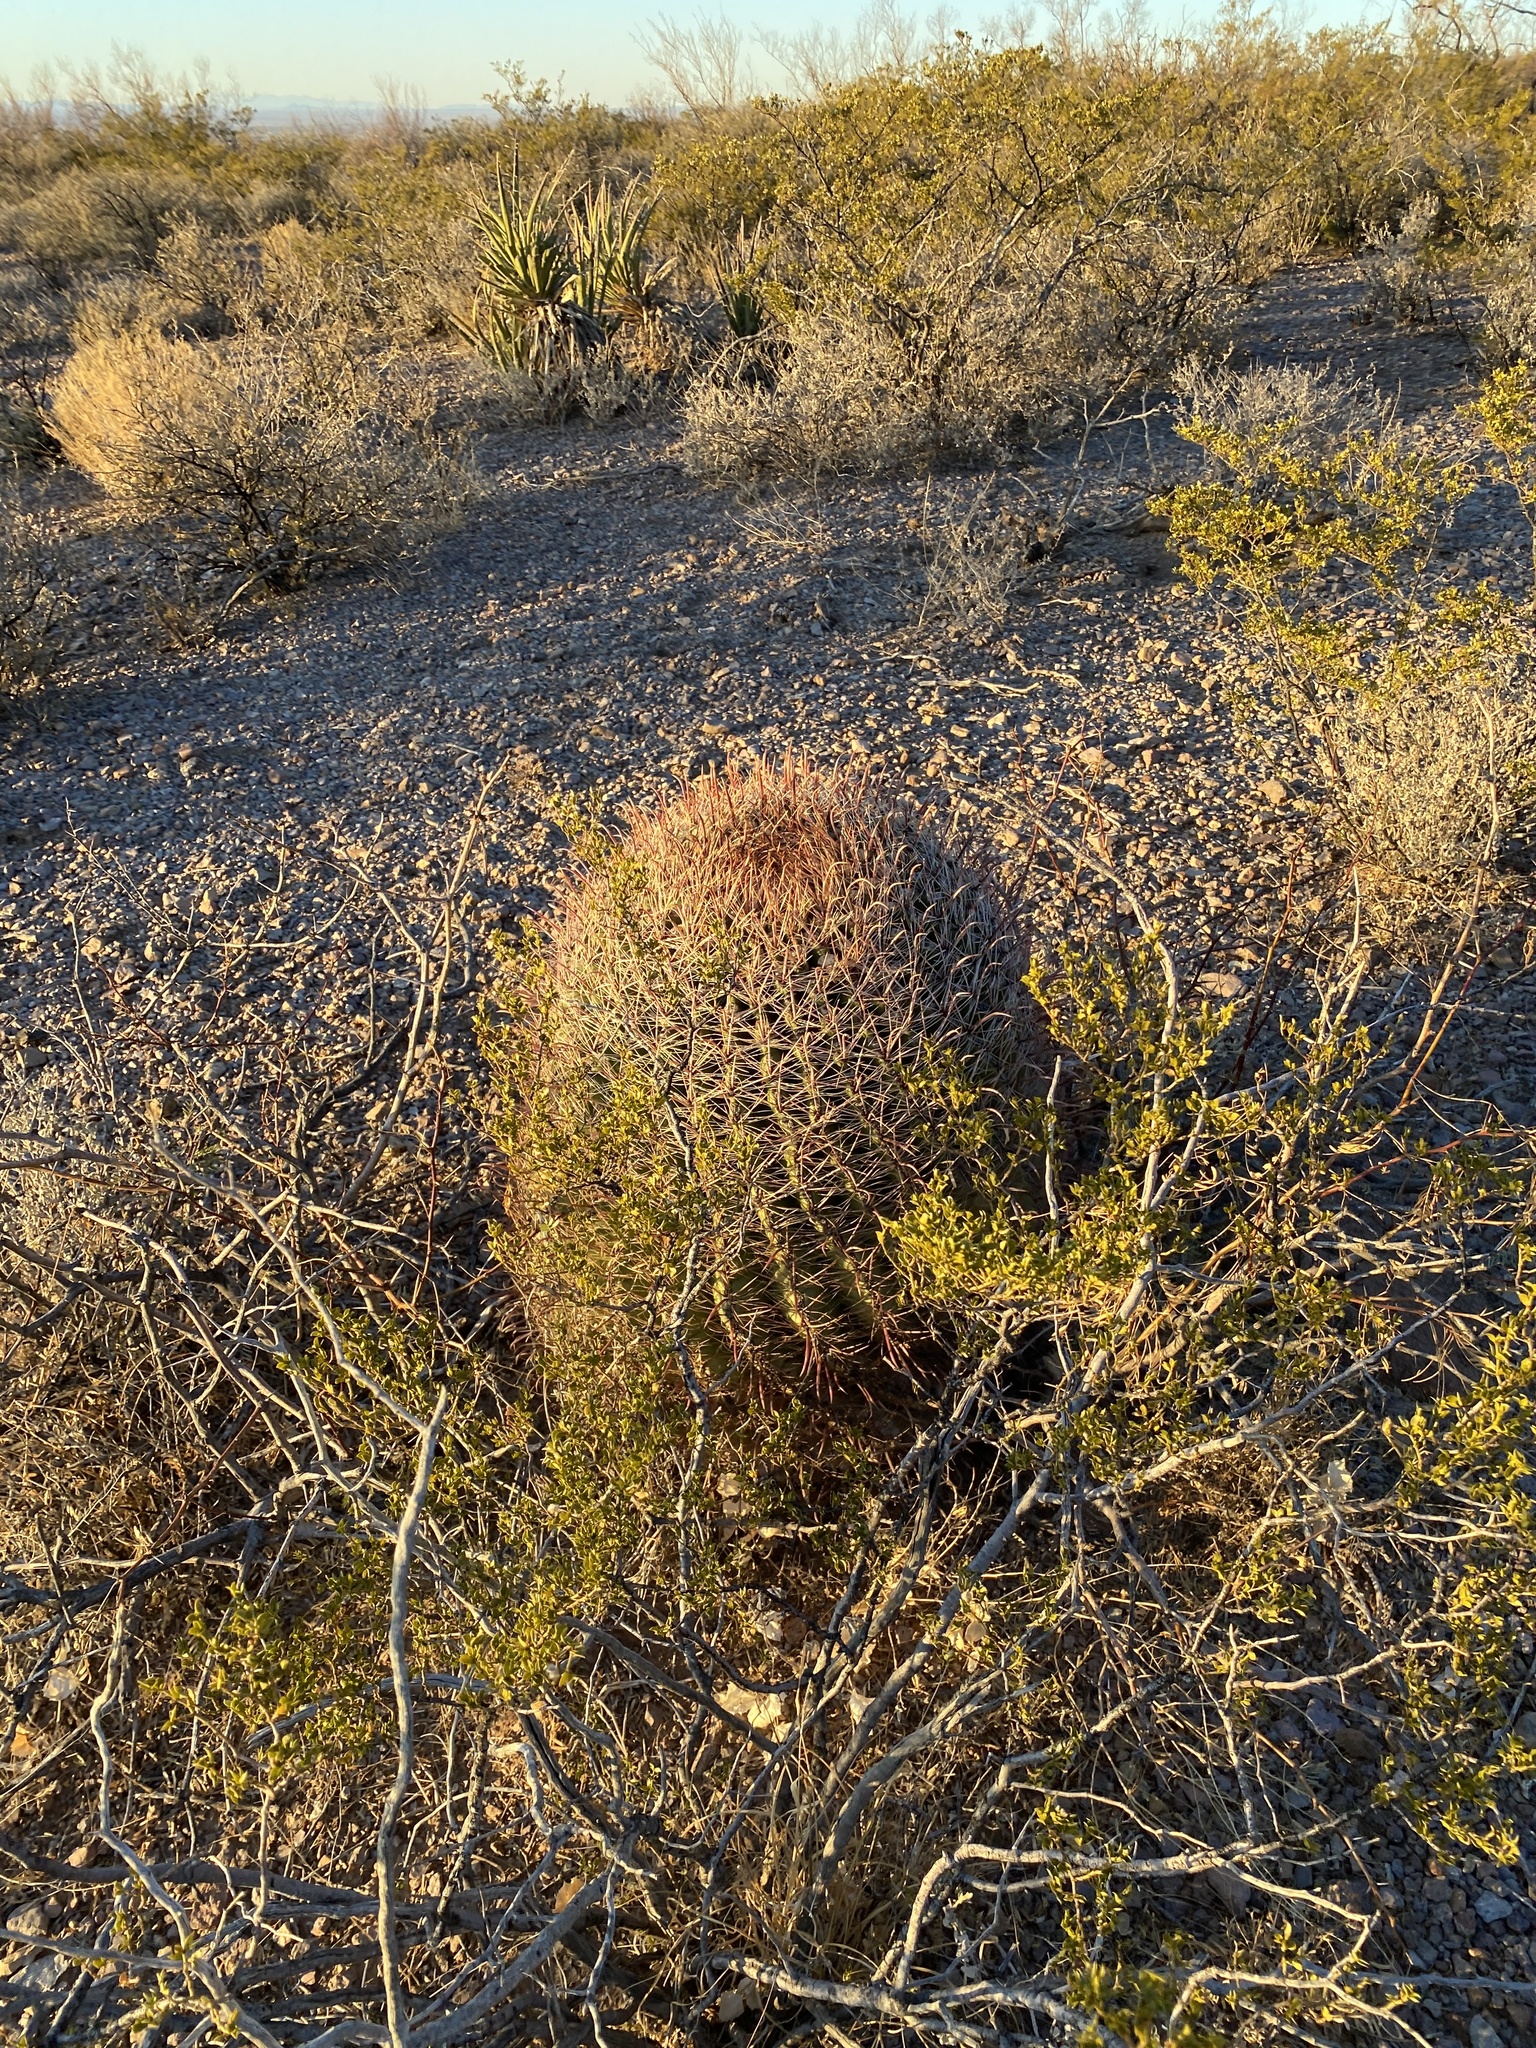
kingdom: Plantae
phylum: Tracheophyta
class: Magnoliopsida
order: Caryophyllales
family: Cactaceae
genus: Ferocactus
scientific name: Ferocactus wislizeni
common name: Candy barrel cactus
